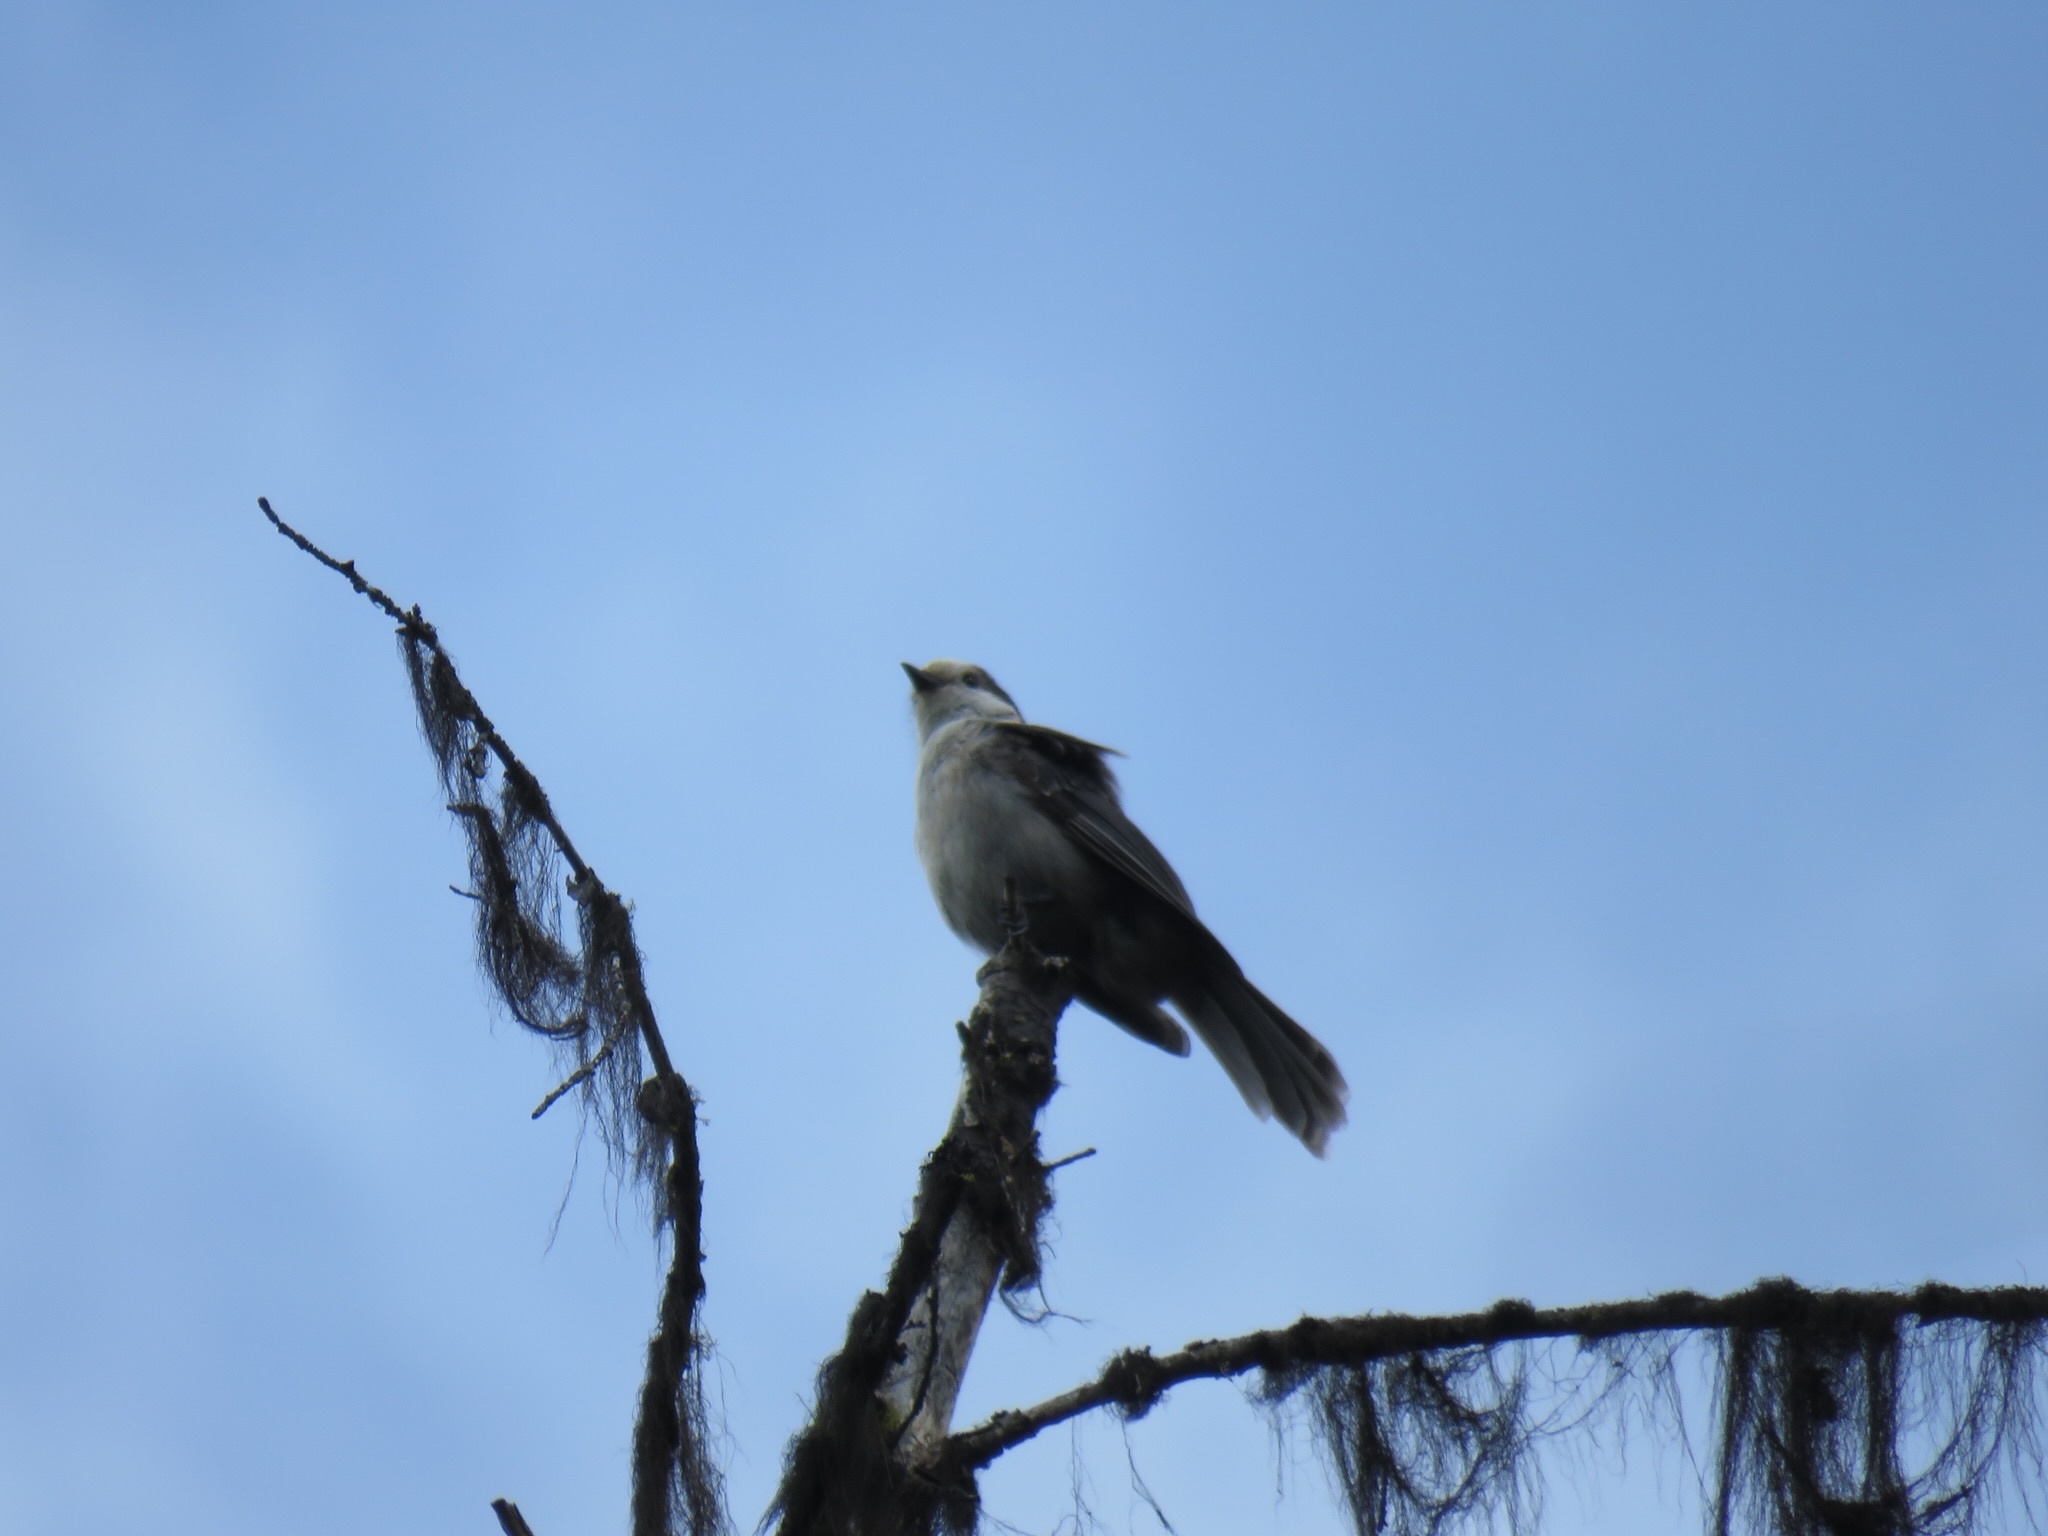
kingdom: Animalia
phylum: Chordata
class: Aves
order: Passeriformes
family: Corvidae
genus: Perisoreus
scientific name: Perisoreus canadensis
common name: Gray jay
